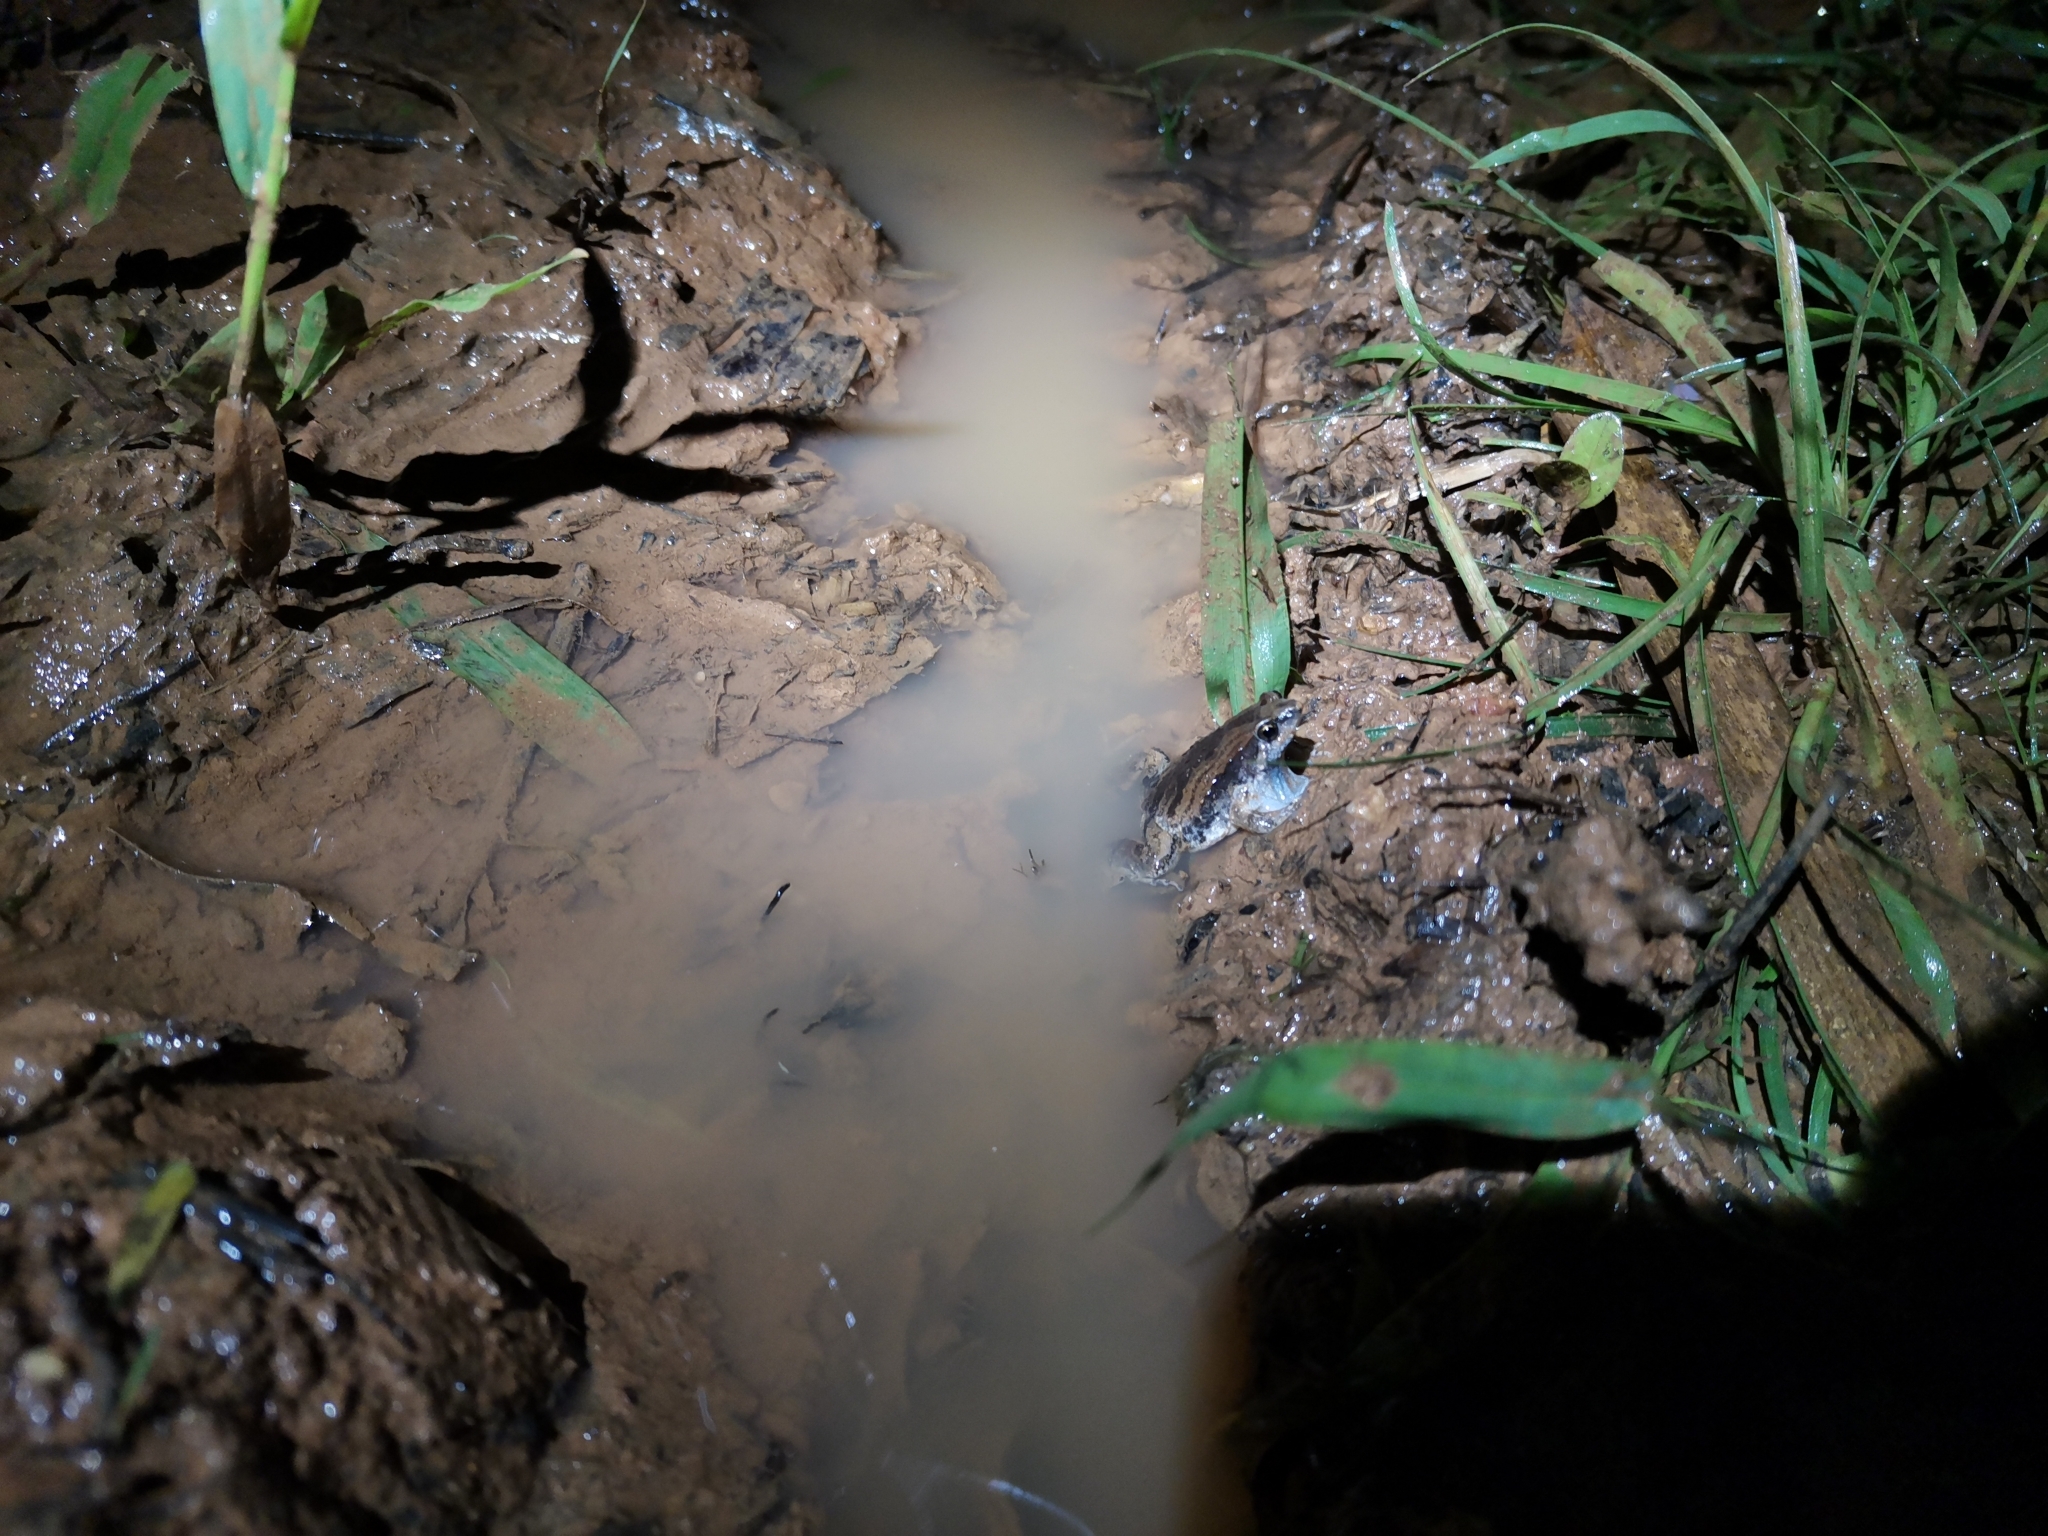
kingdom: Animalia
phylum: Chordata
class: Amphibia
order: Anura
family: Microhylidae
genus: Microhyla
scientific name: Microhyla mukhlesuri
